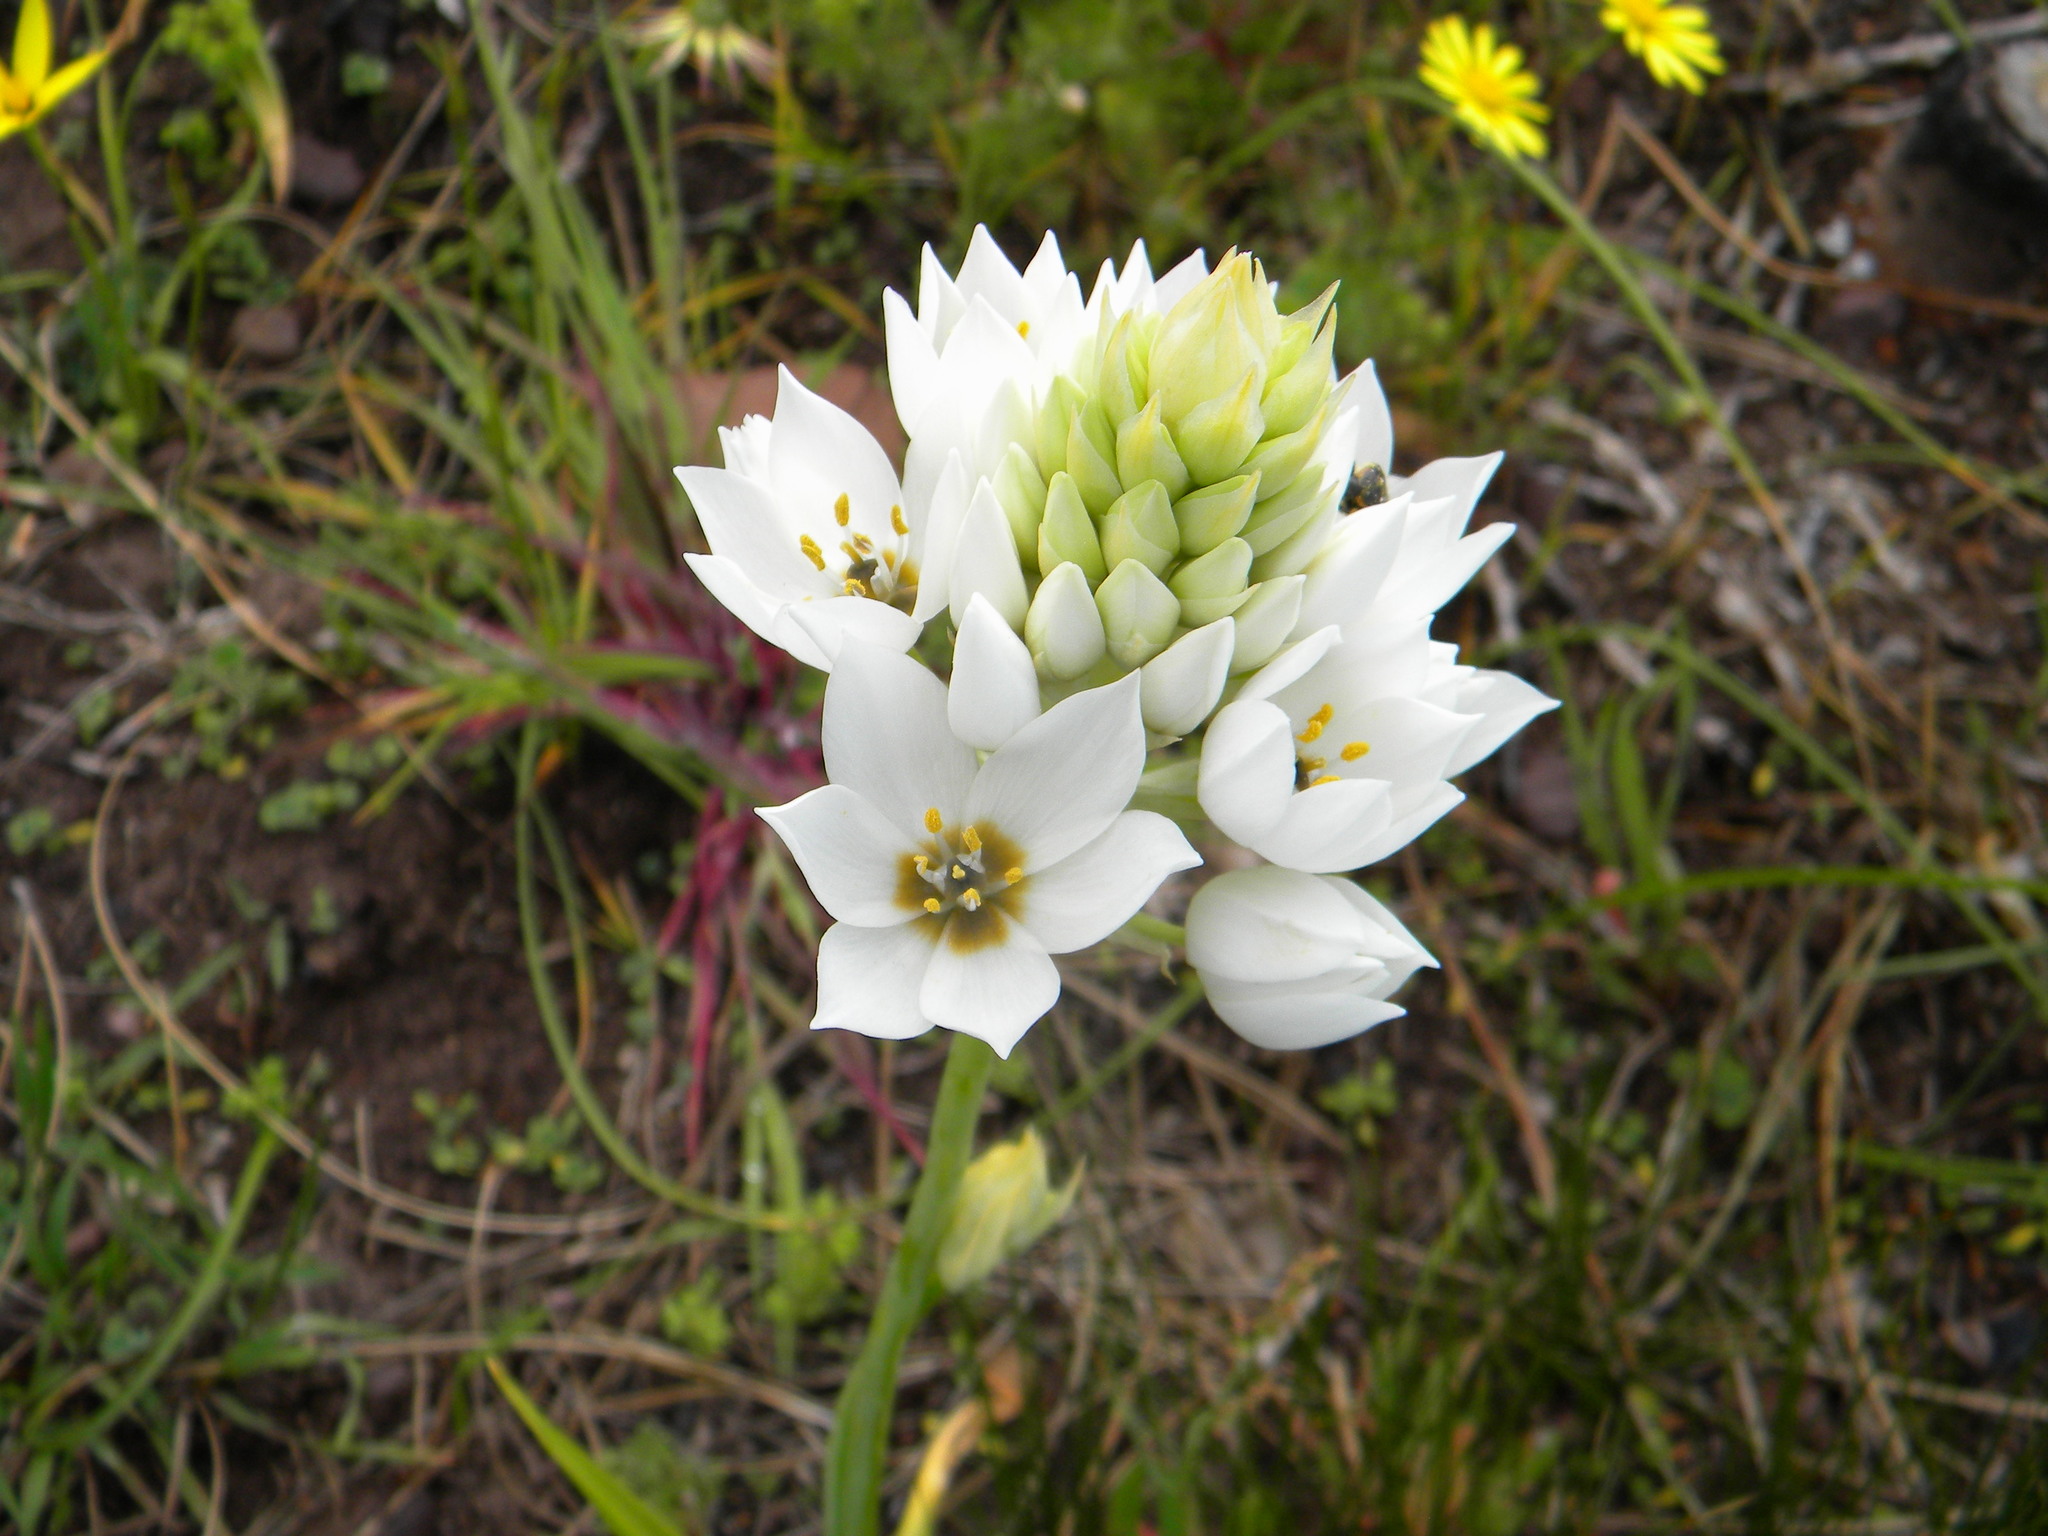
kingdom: Plantae
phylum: Tracheophyta
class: Liliopsida
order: Asparagales
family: Asparagaceae
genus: Ornithogalum
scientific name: Ornithogalum thyrsoides
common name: Chincherinchee
